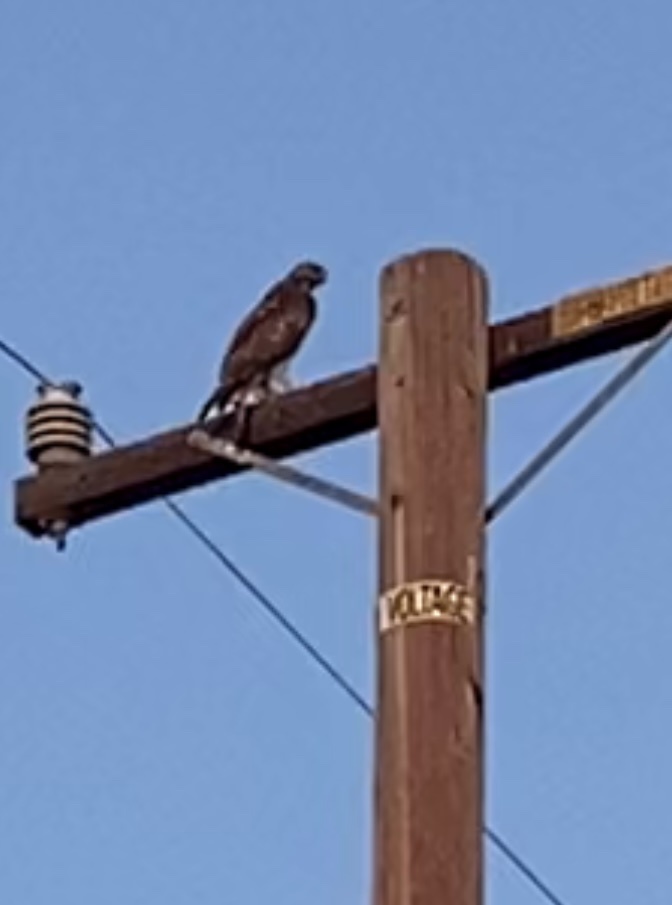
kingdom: Animalia
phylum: Chordata
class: Aves
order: Accipitriformes
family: Accipitridae
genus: Buteo
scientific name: Buteo jamaicensis
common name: Red-tailed hawk
